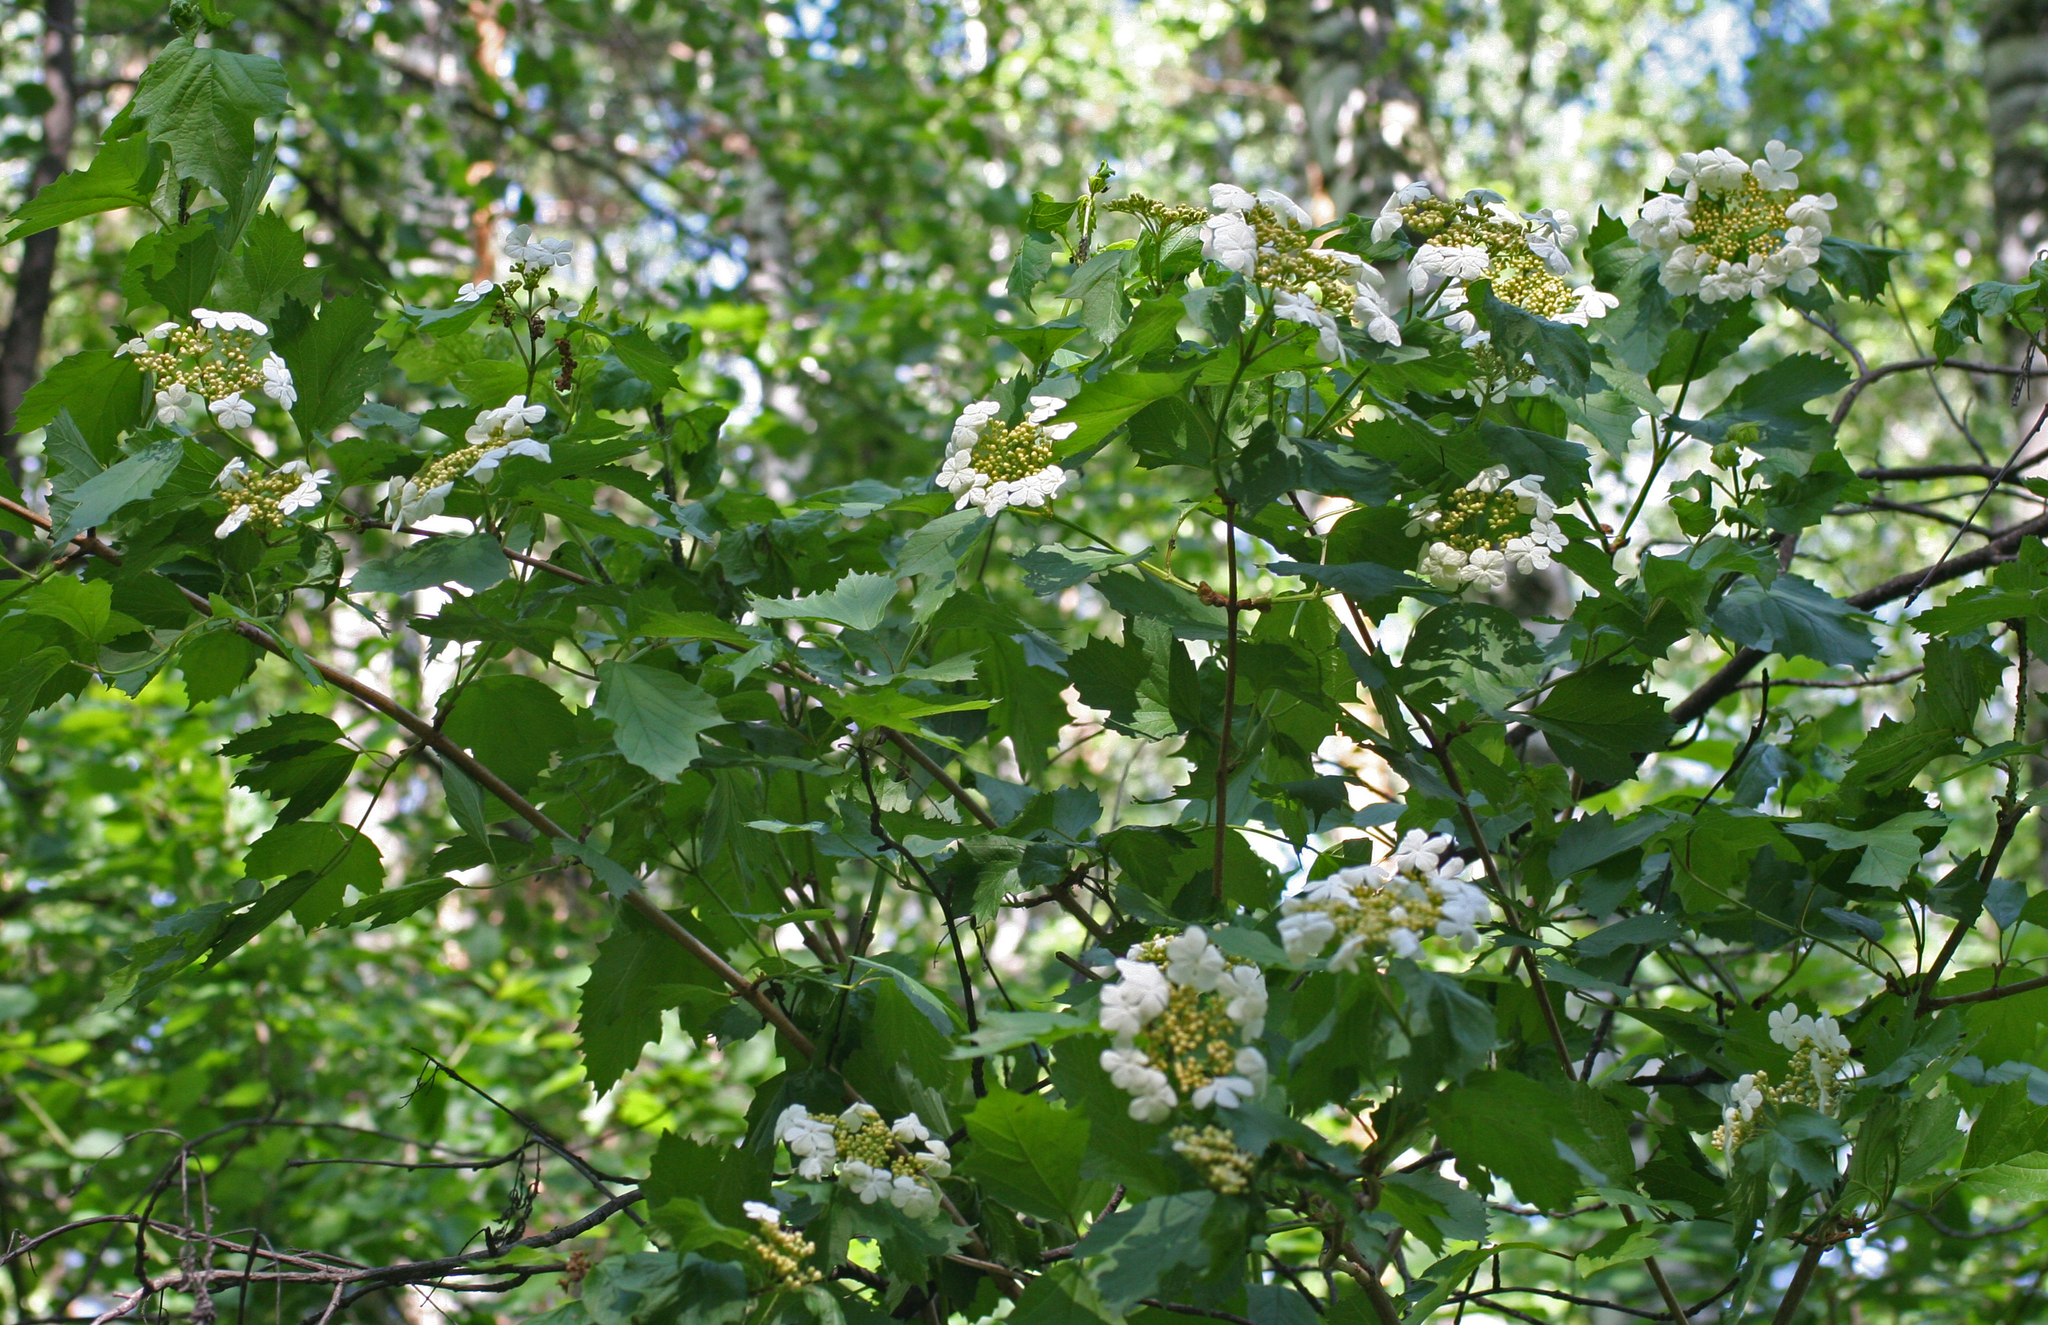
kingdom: Plantae
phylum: Tracheophyta
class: Magnoliopsida
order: Dipsacales
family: Viburnaceae
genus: Viburnum
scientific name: Viburnum opulus
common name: Guelder-rose
